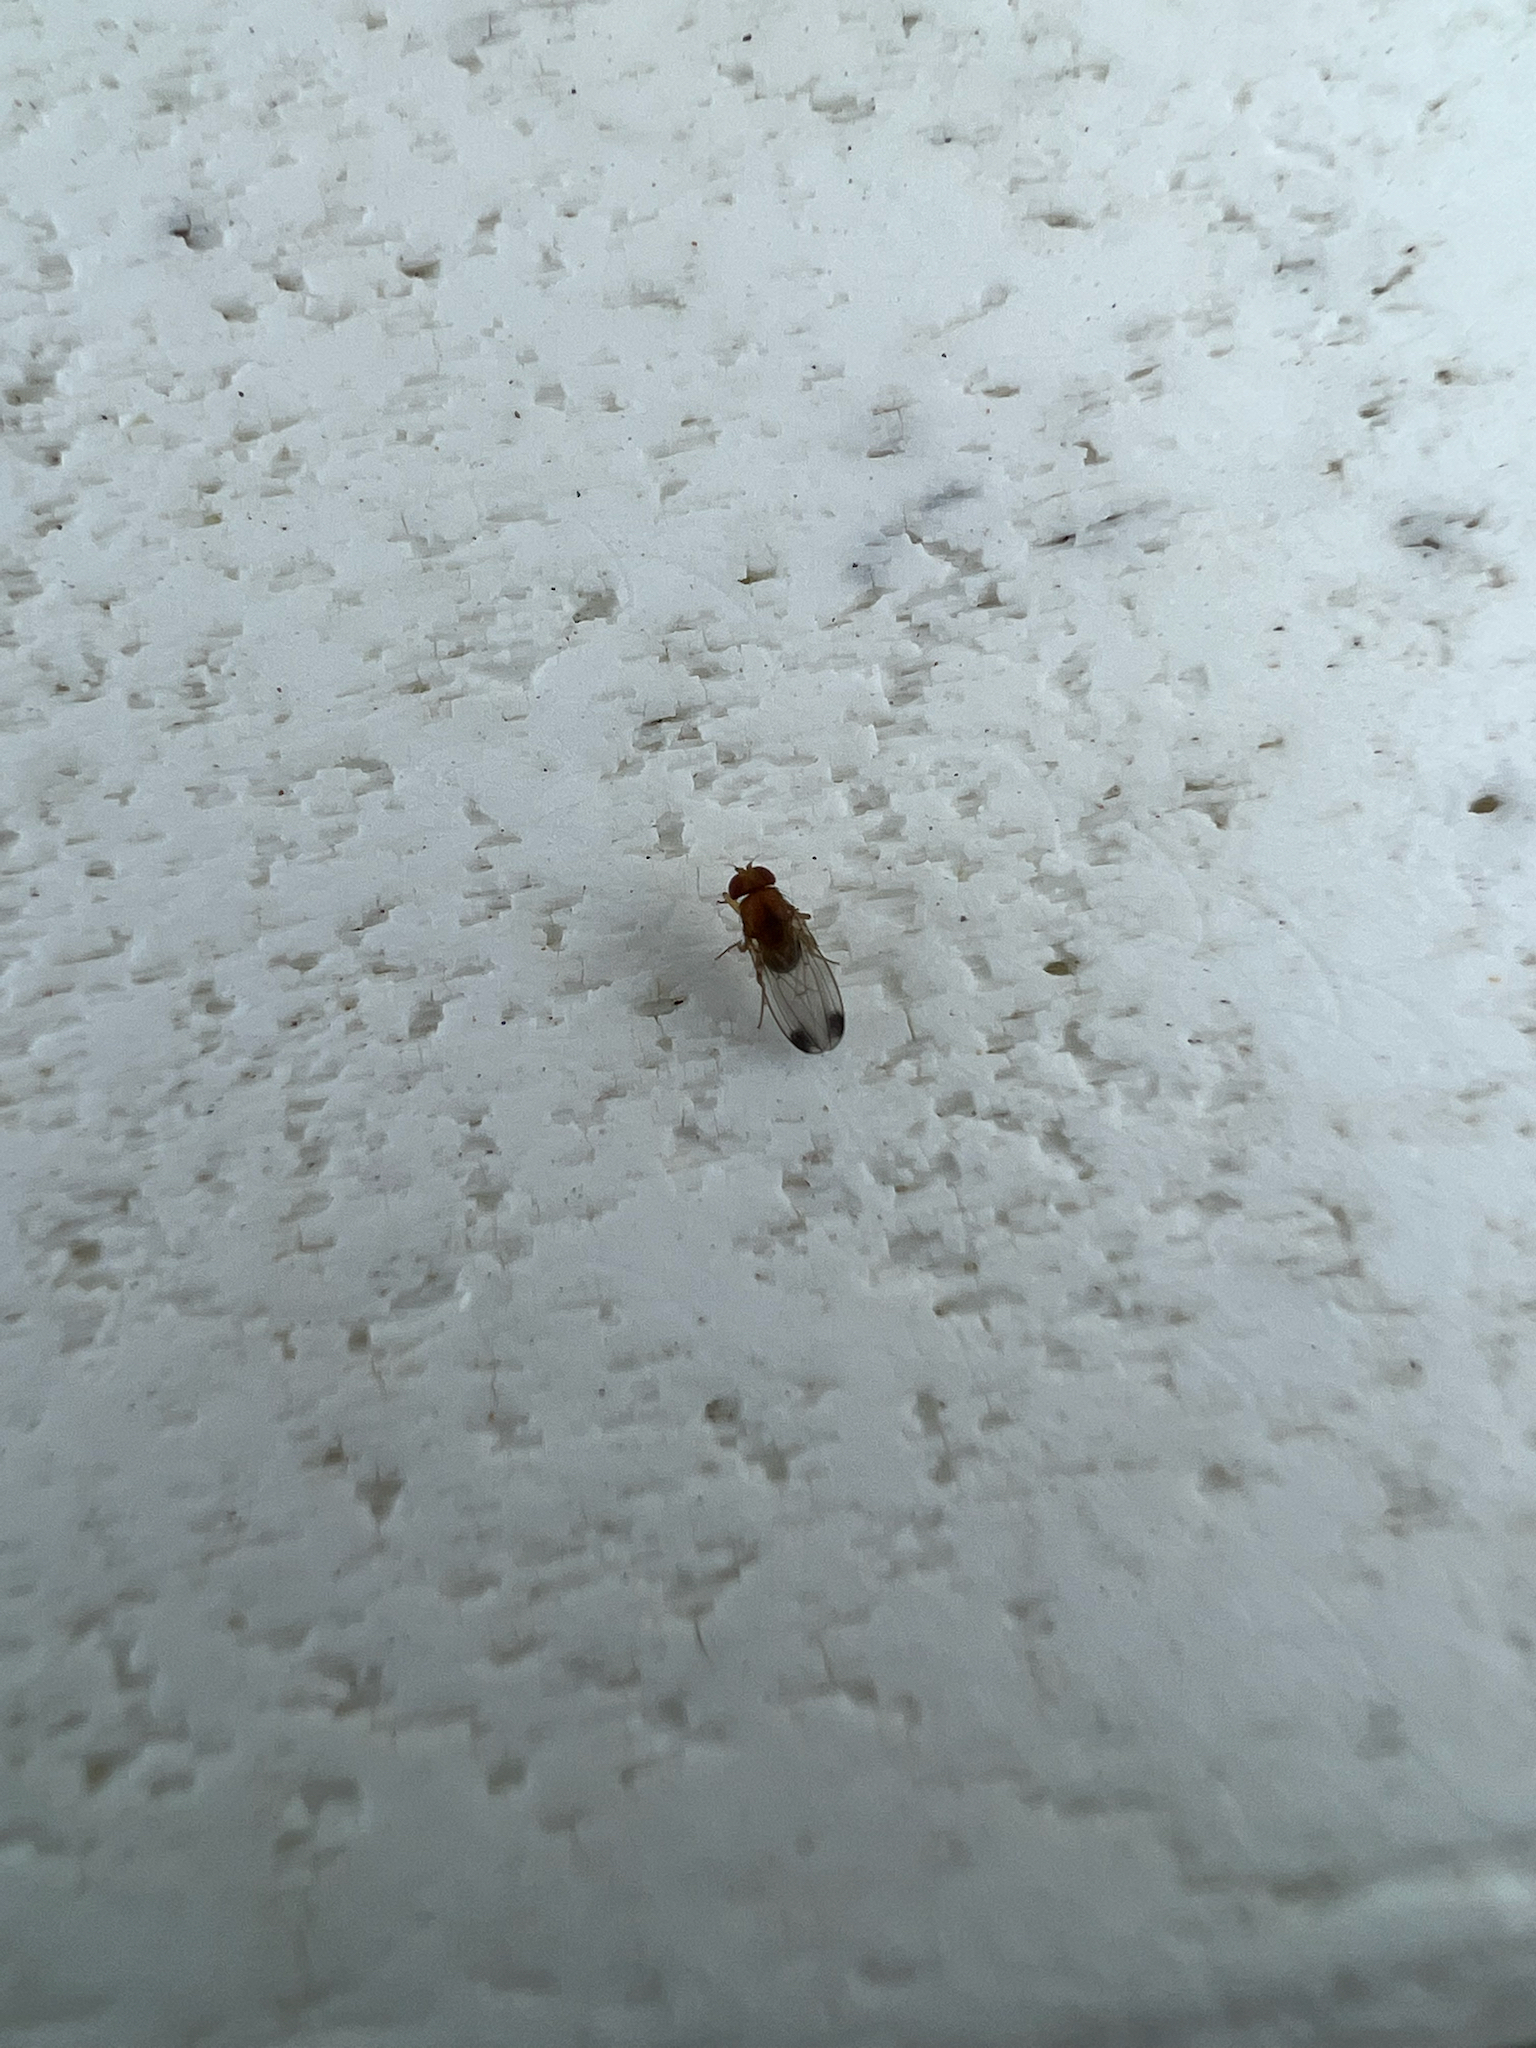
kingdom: Animalia
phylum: Arthropoda
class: Insecta
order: Diptera
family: Drosophilidae
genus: Drosophila
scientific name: Drosophila suzukii
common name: Spotted-wing drosophila
